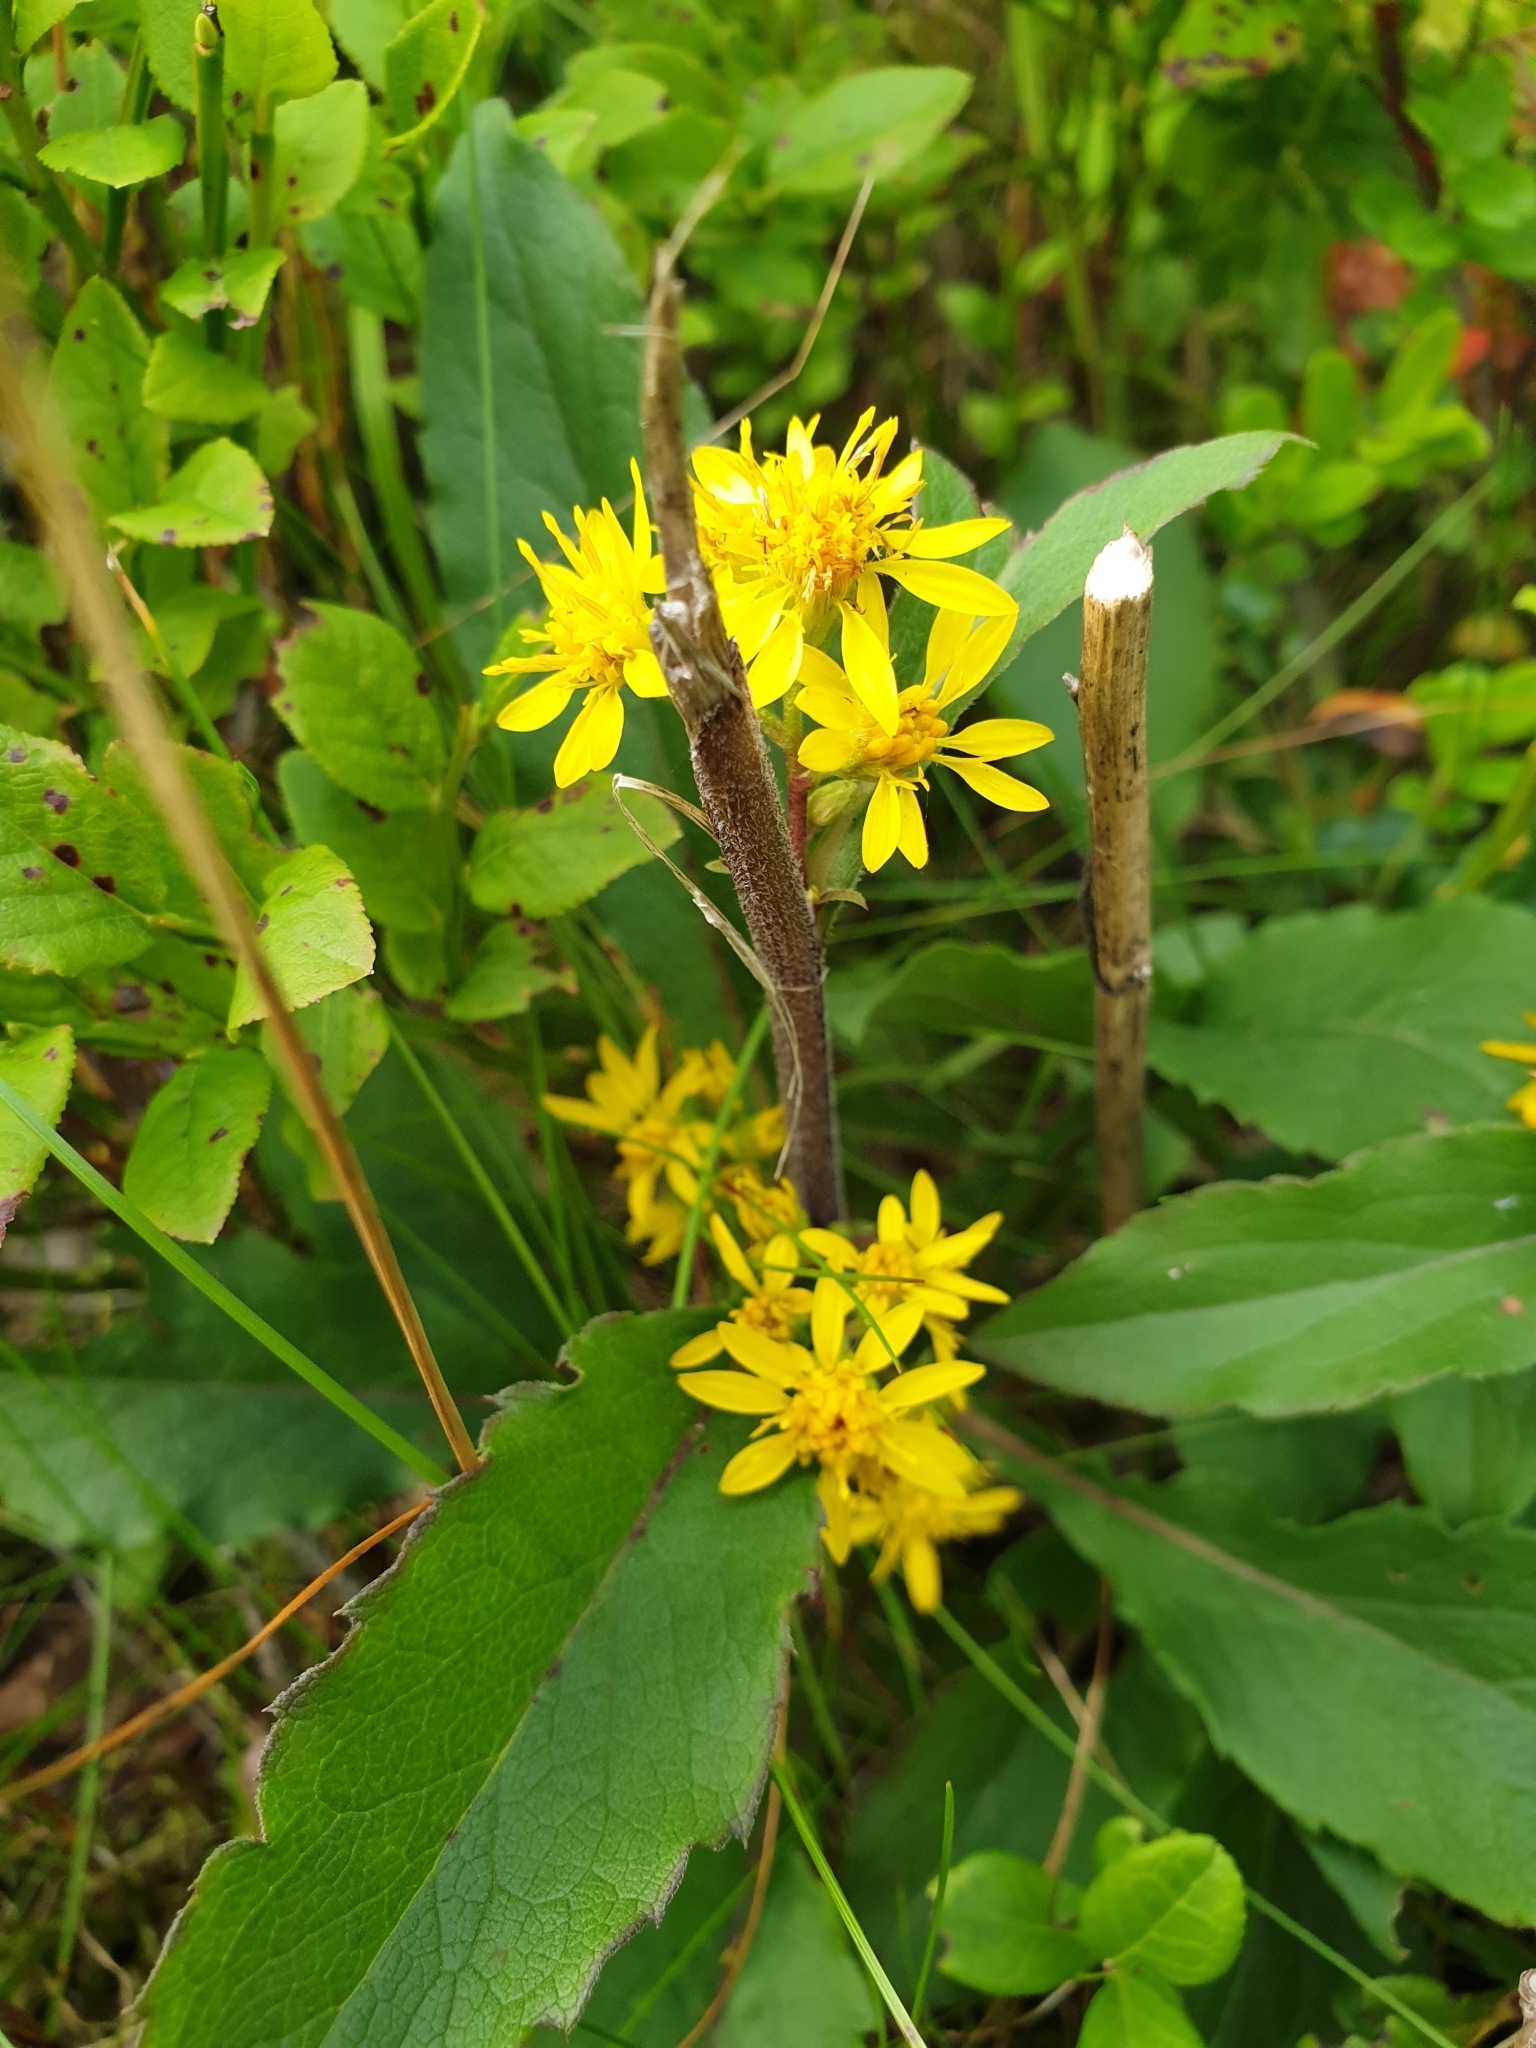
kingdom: Plantae
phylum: Tracheophyta
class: Magnoliopsida
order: Asterales
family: Asteraceae
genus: Solidago
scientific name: Solidago virgaurea
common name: Goldenrod
